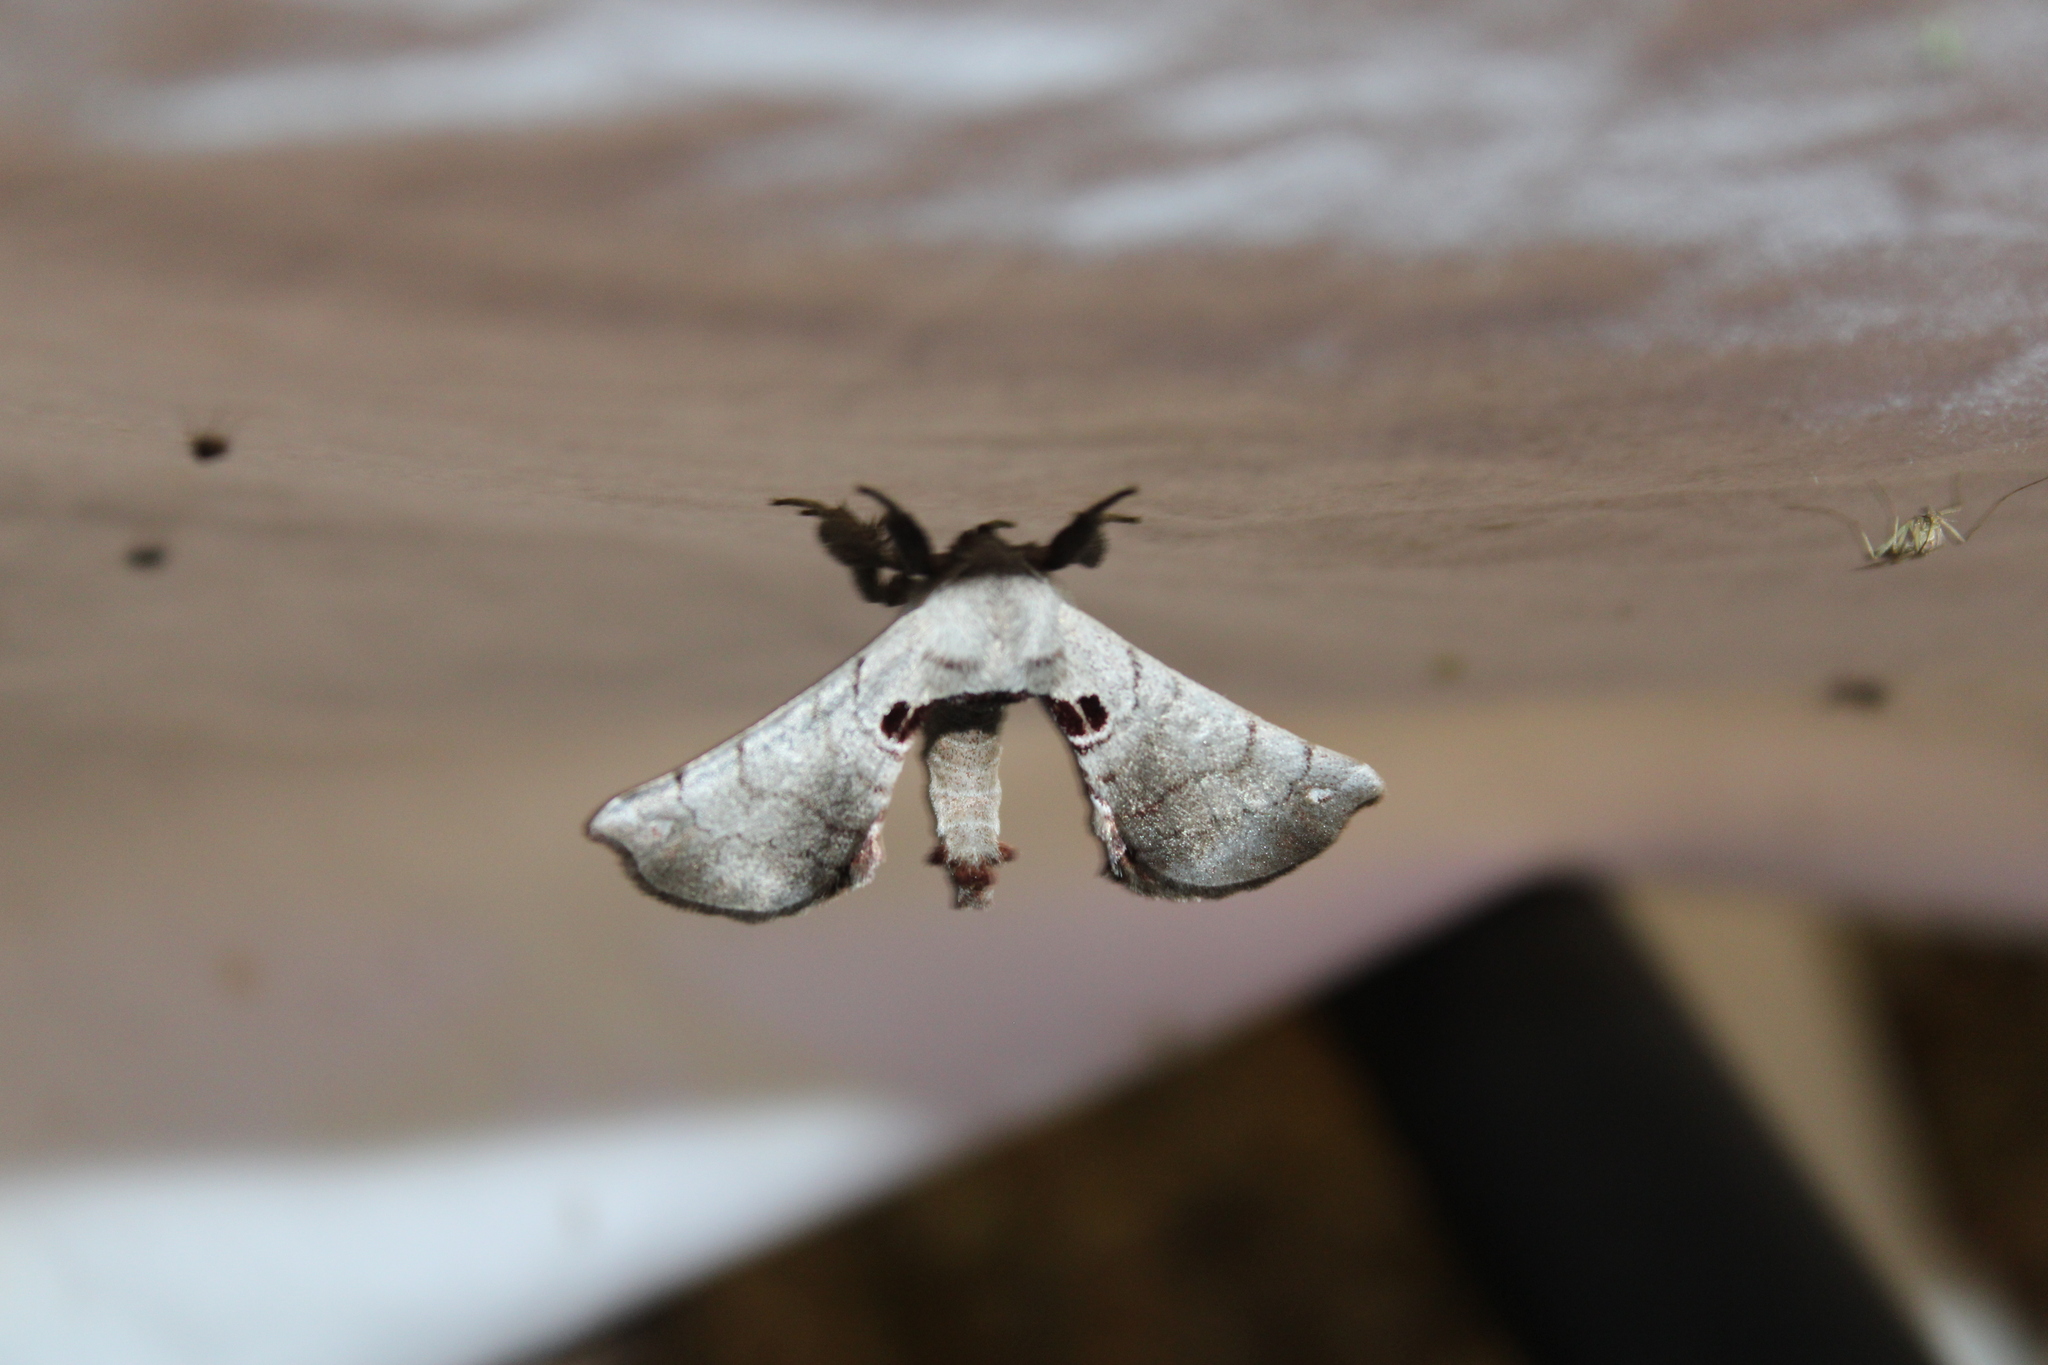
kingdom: Animalia
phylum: Arthropoda
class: Insecta
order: Lepidoptera
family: Apatelodidae
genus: Hygrochroa
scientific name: Hygrochroa Apatelodes torrefacta
